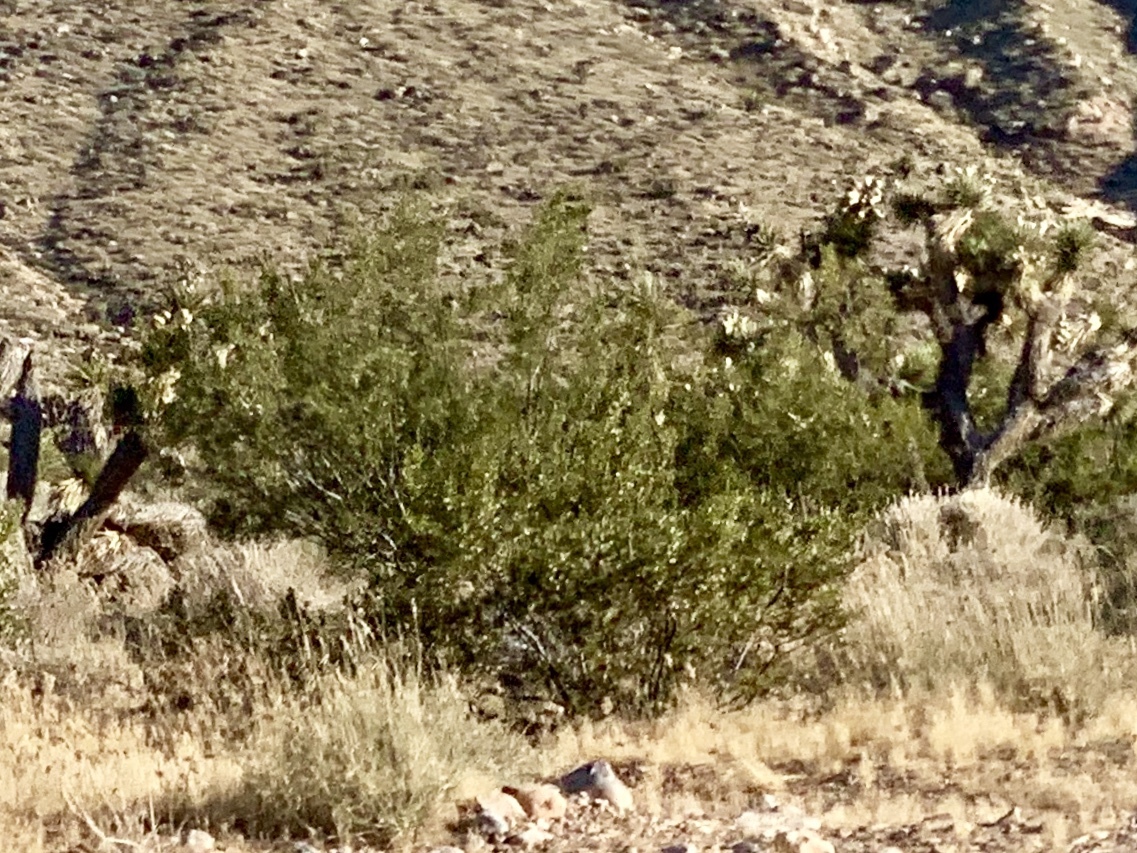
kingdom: Plantae
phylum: Tracheophyta
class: Magnoliopsida
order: Zygophyllales
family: Zygophyllaceae
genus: Larrea
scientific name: Larrea tridentata
